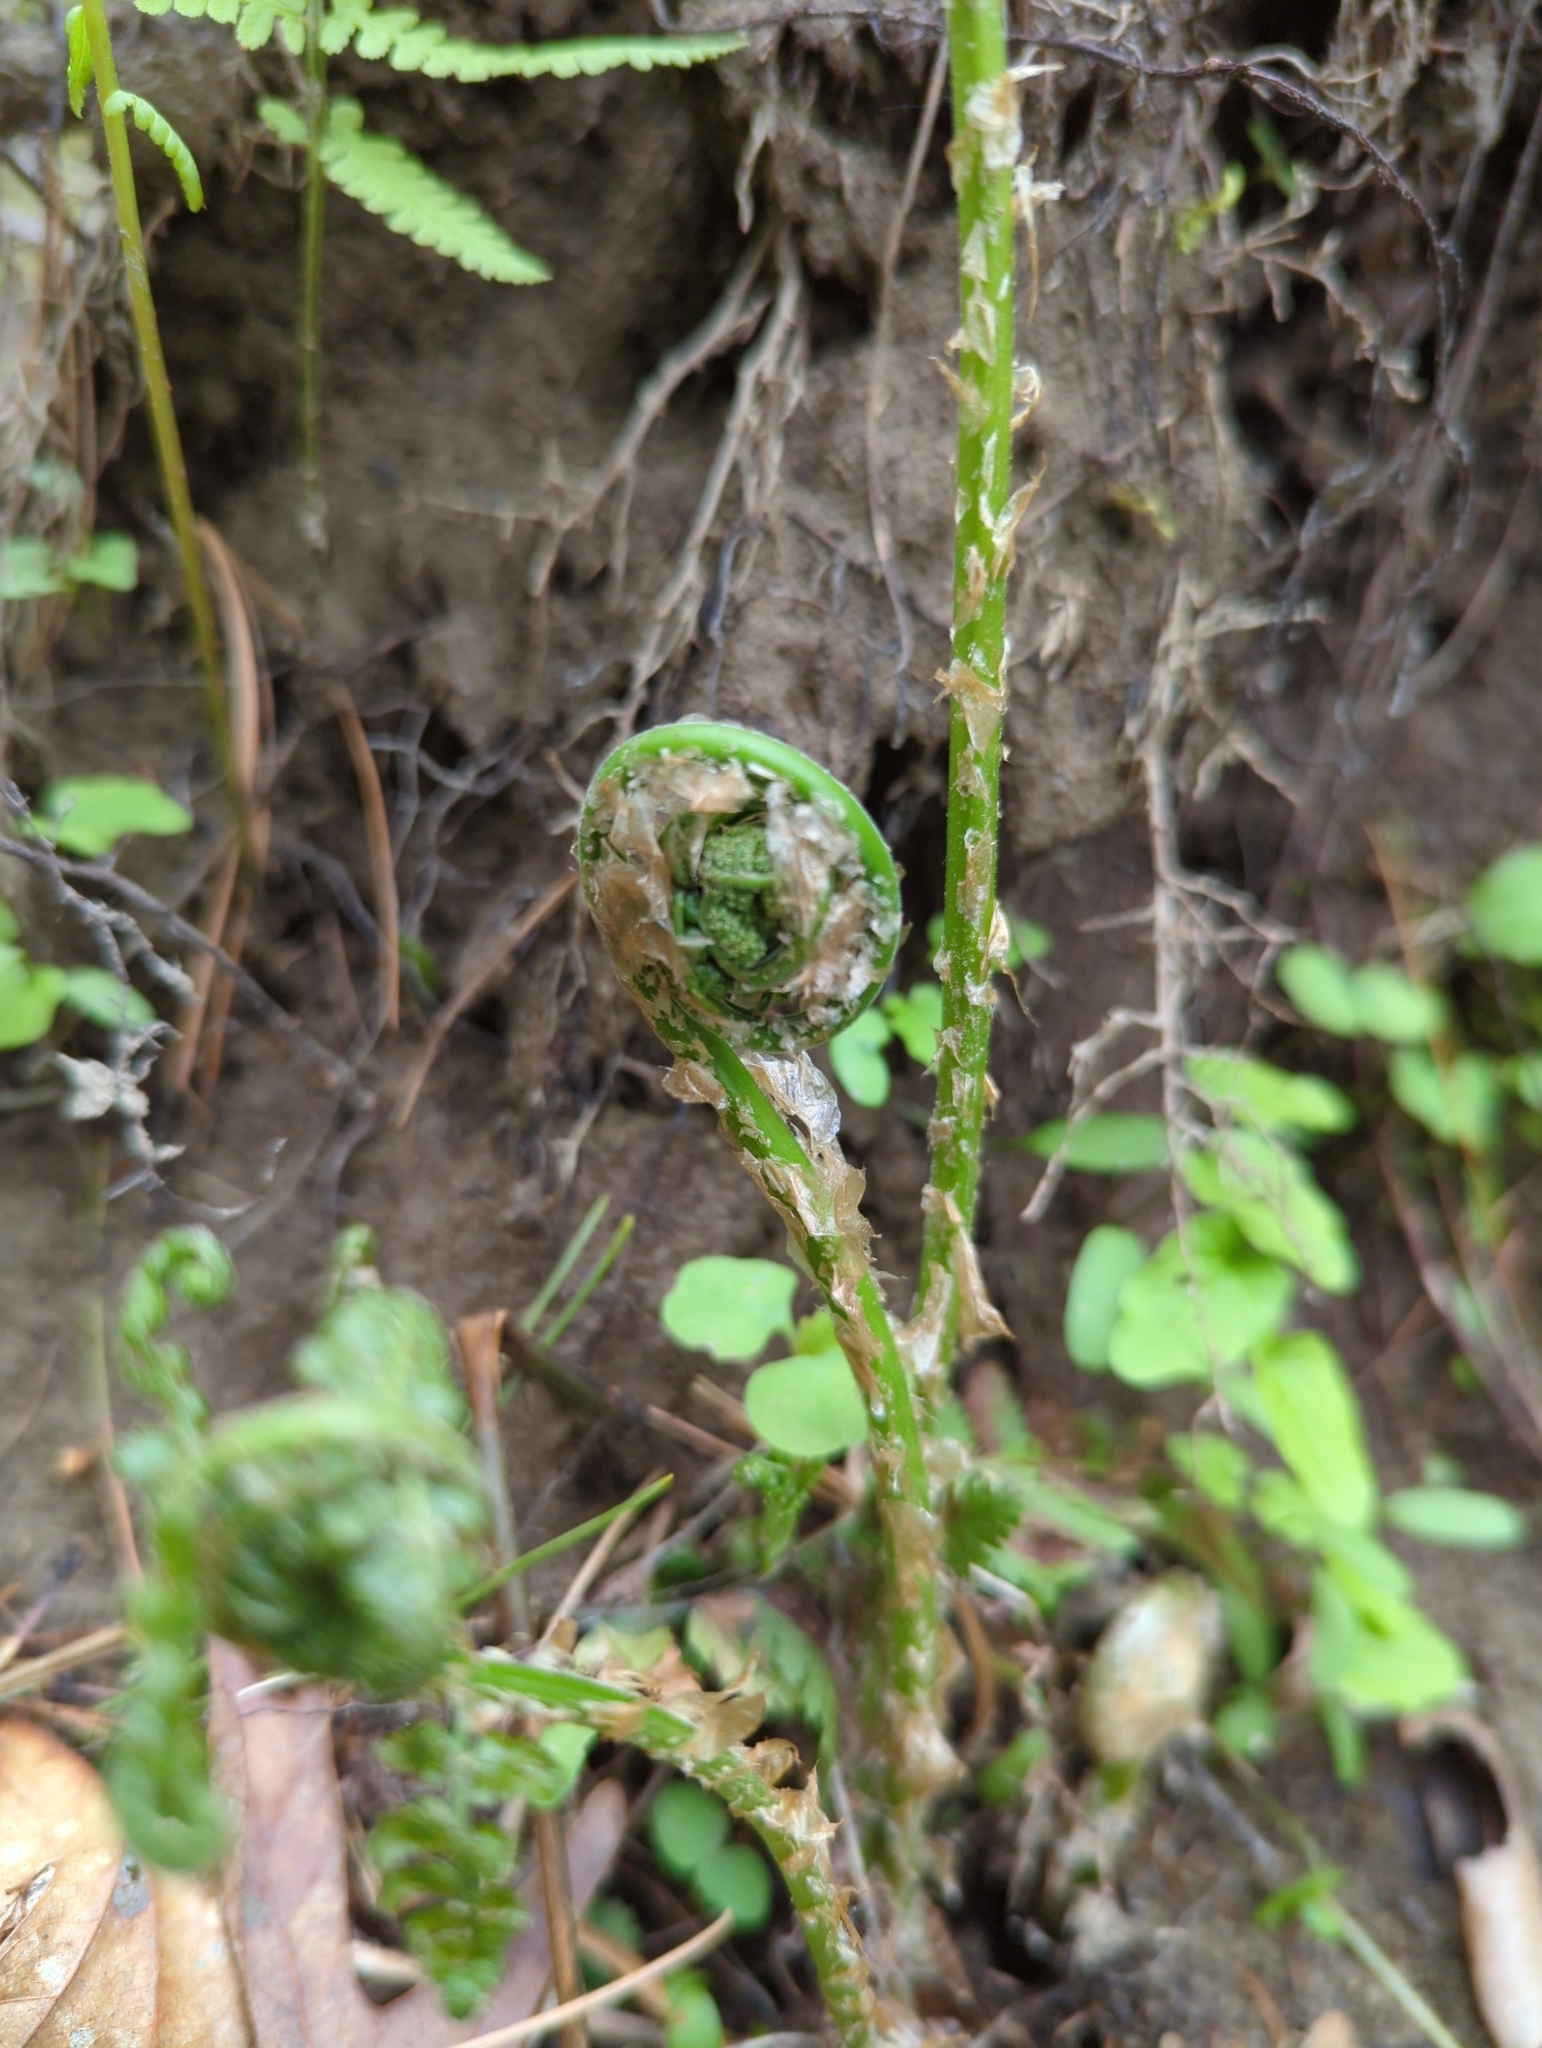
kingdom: Plantae
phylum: Tracheophyta
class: Polypodiopsida
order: Polypodiales
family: Dryopteridaceae
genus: Dryopteris
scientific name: Dryopteris intermedia
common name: Evergreen wood fern
